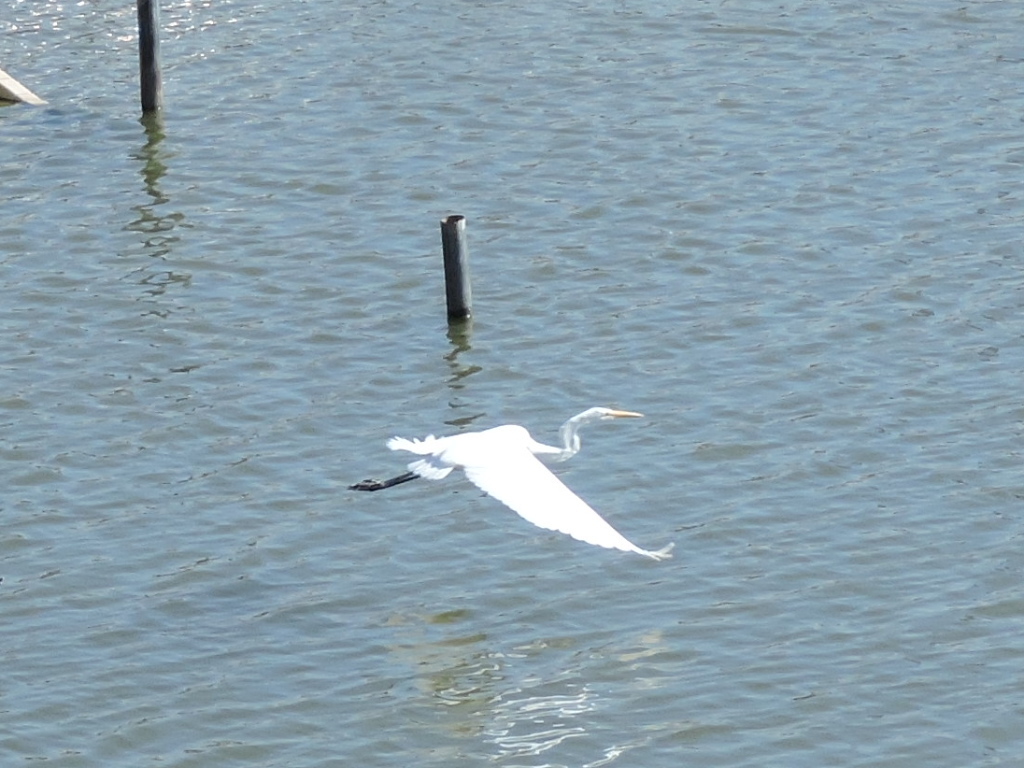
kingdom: Animalia
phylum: Chordata
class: Aves
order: Pelecaniformes
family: Ardeidae
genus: Ardea
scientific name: Ardea alba
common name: Great egret
